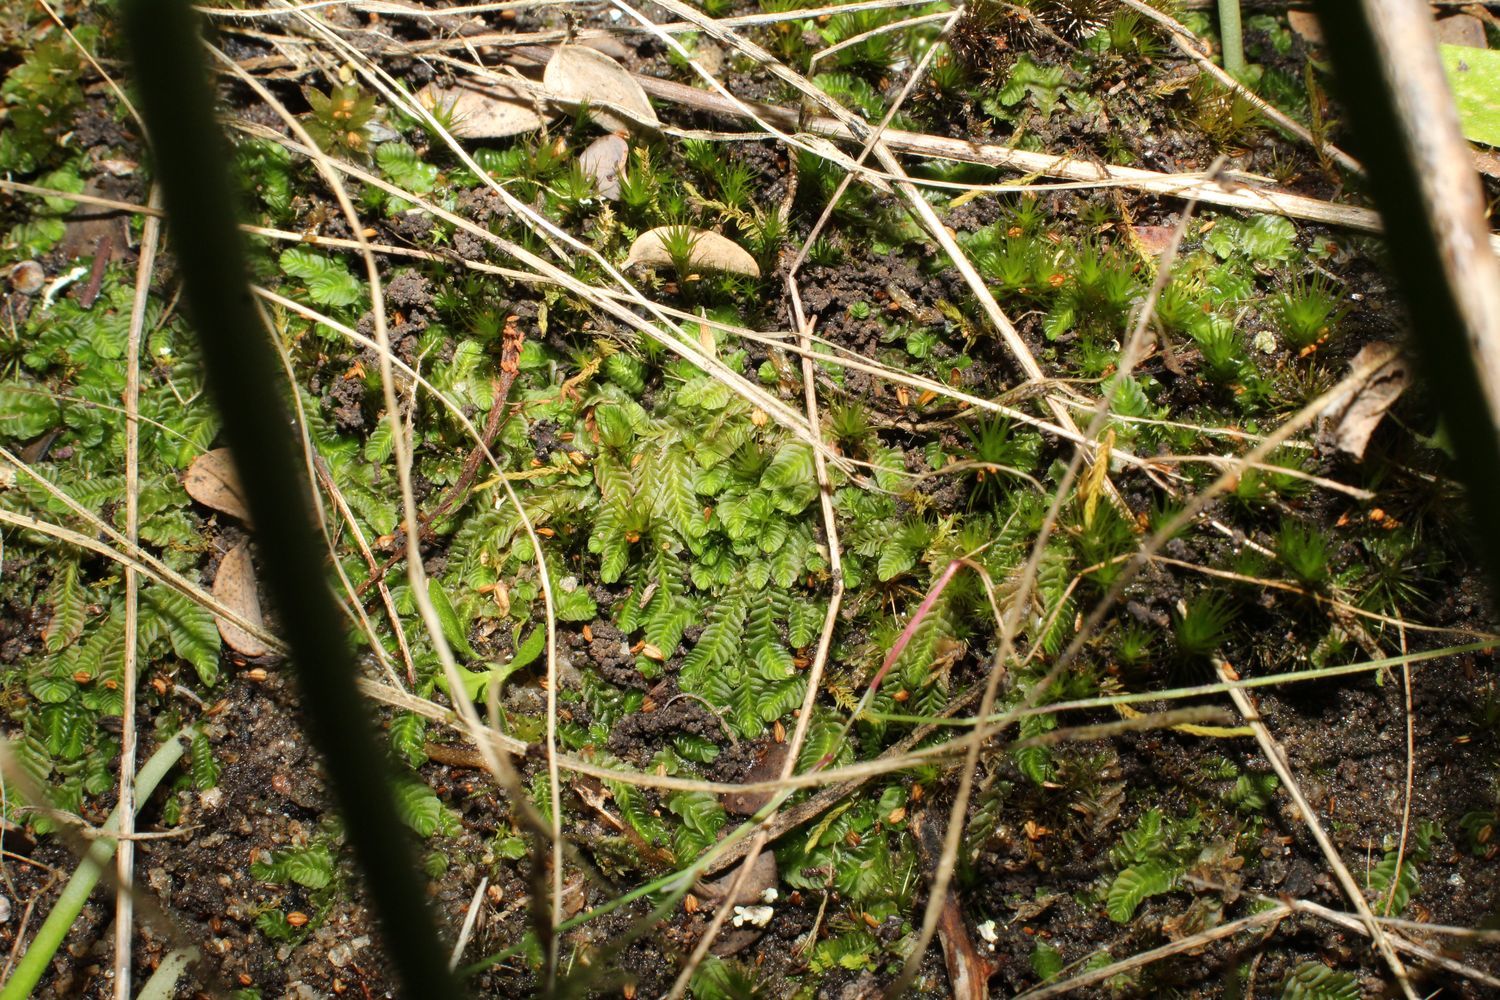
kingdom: Plantae
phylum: Marchantiophyta
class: Jungermanniopsida
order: Jungermanniales
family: Acrobolbaceae
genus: Lethocolea
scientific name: Lethocolea pansa
